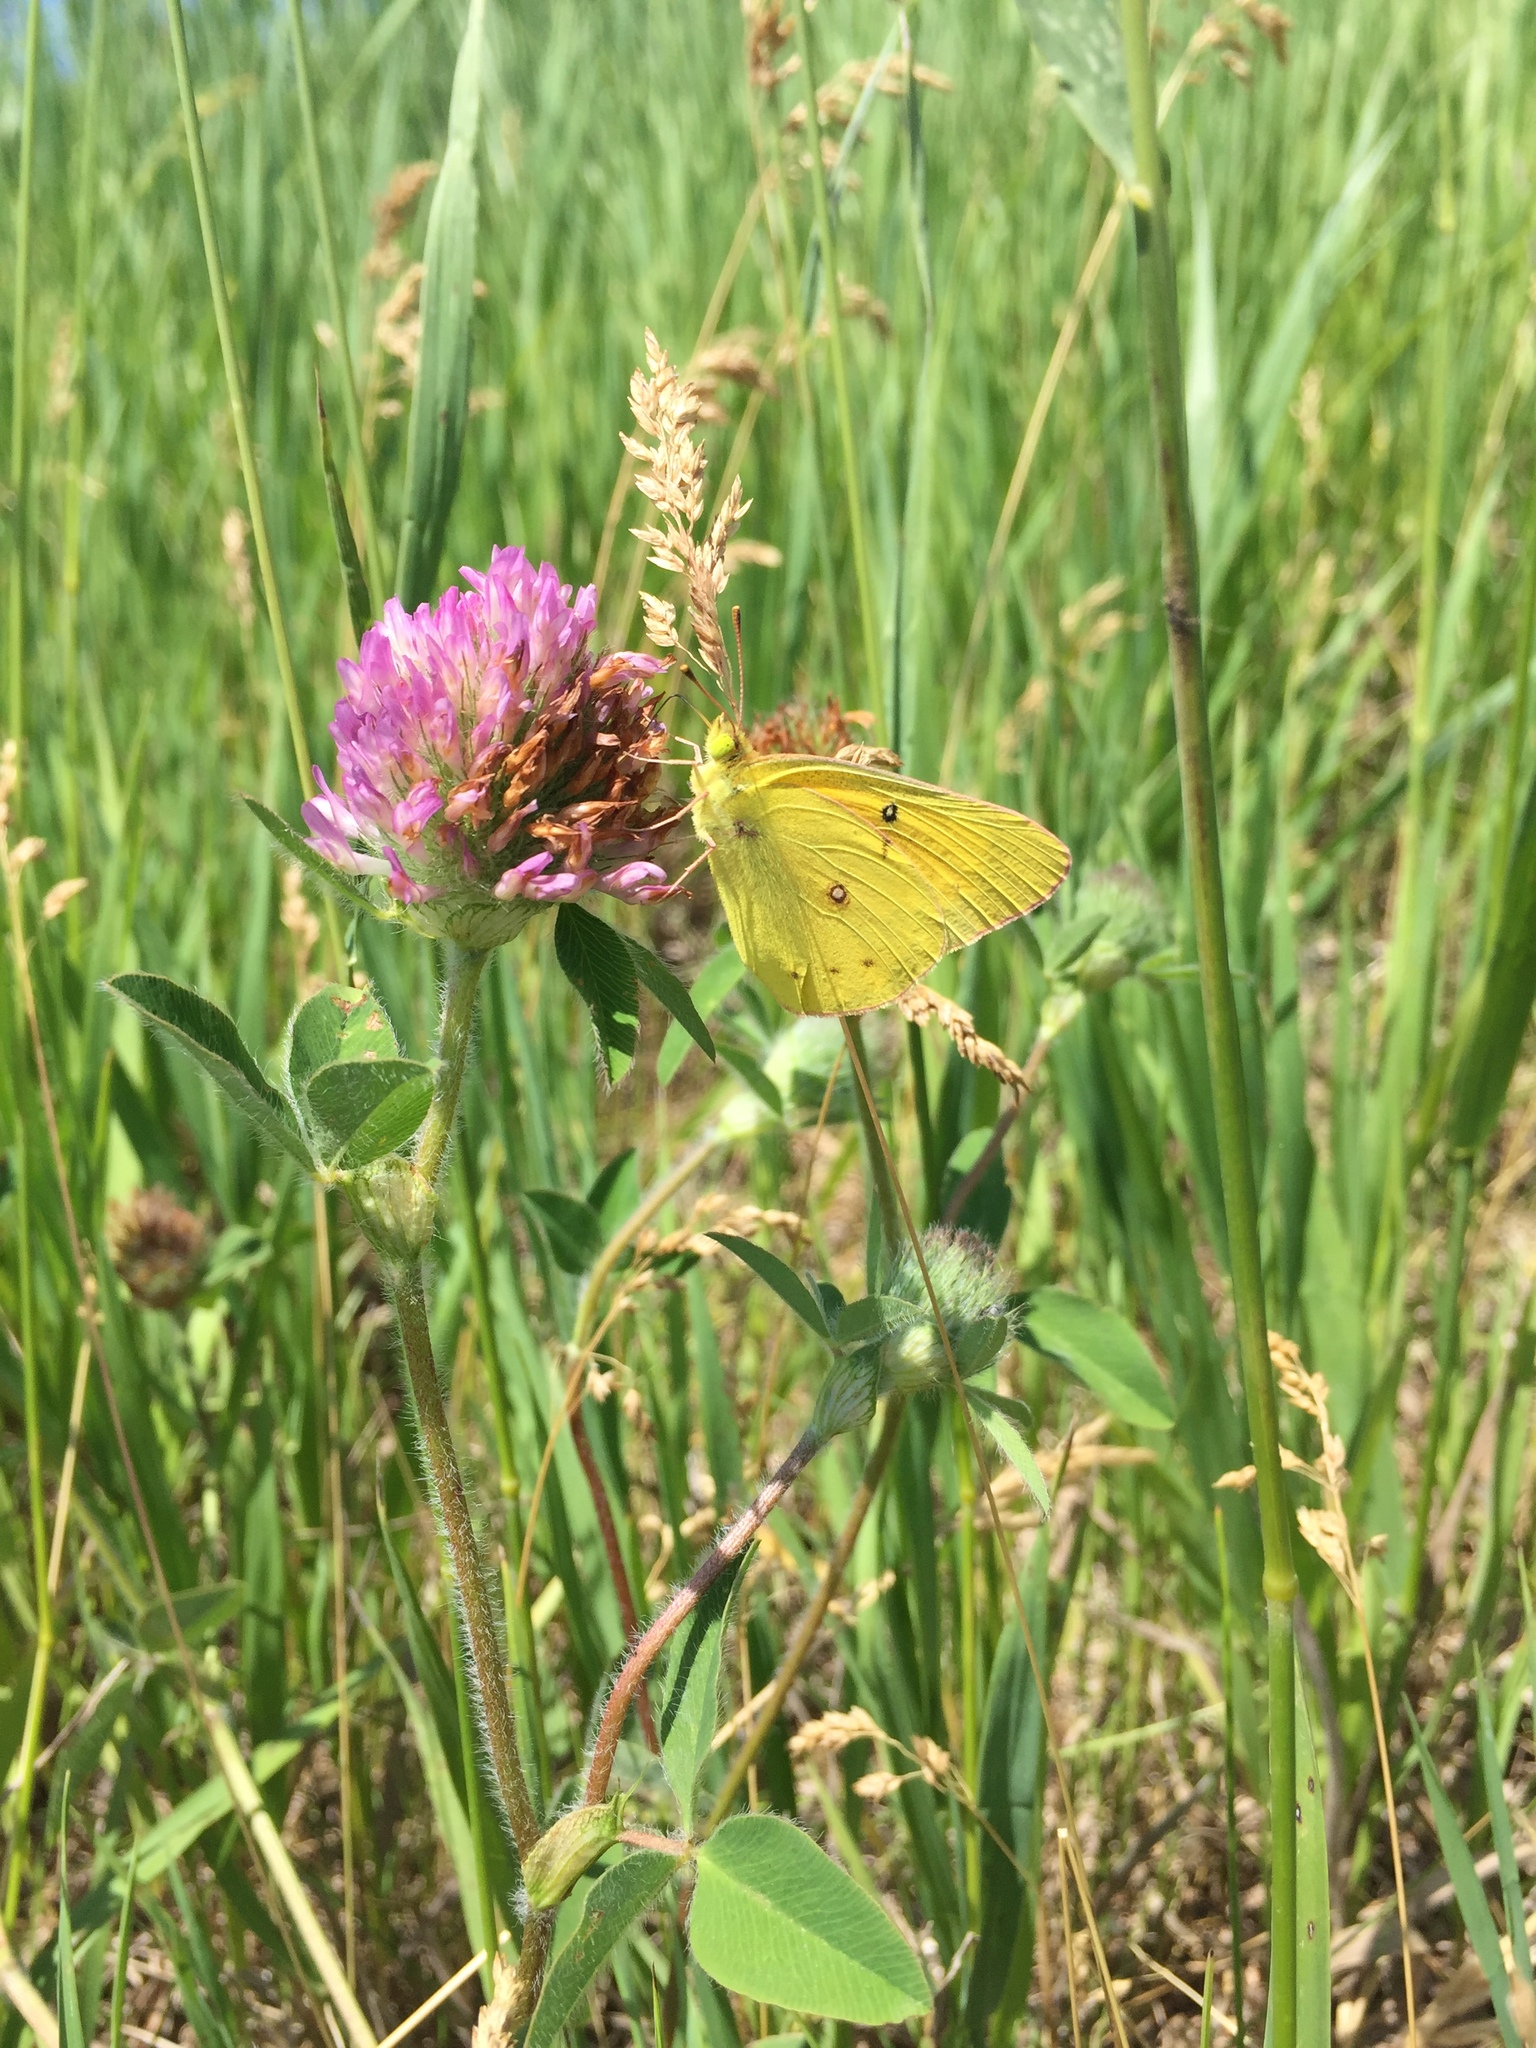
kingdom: Animalia
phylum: Arthropoda
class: Insecta
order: Lepidoptera
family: Pieridae
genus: Colias
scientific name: Colias eurytheme
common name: Alfalfa butterfly
